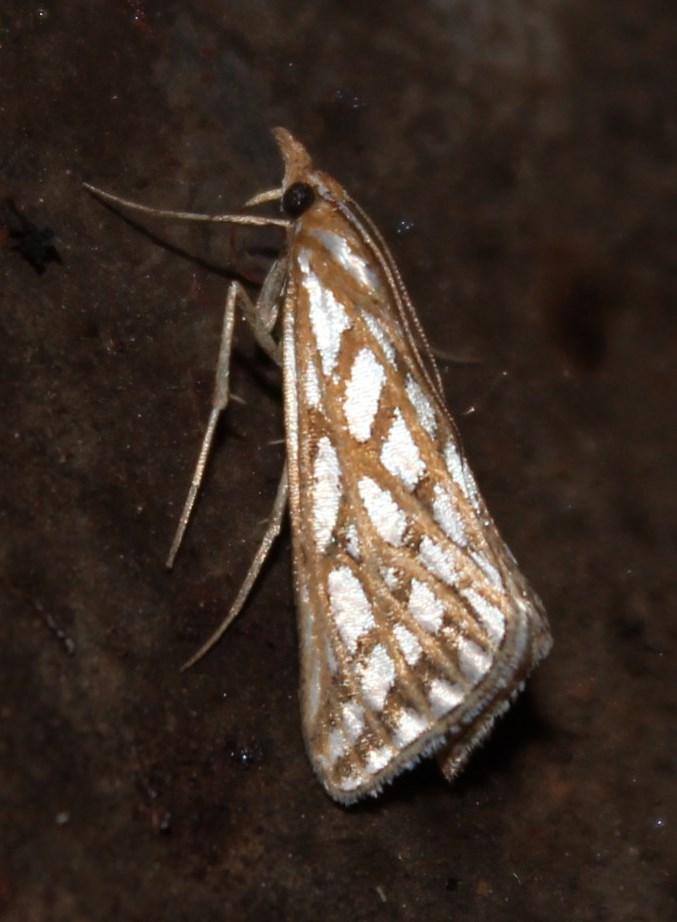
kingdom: Animalia
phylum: Arthropoda
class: Insecta
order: Lepidoptera
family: Pyralidae
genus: Triphassa
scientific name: Triphassa argentea
